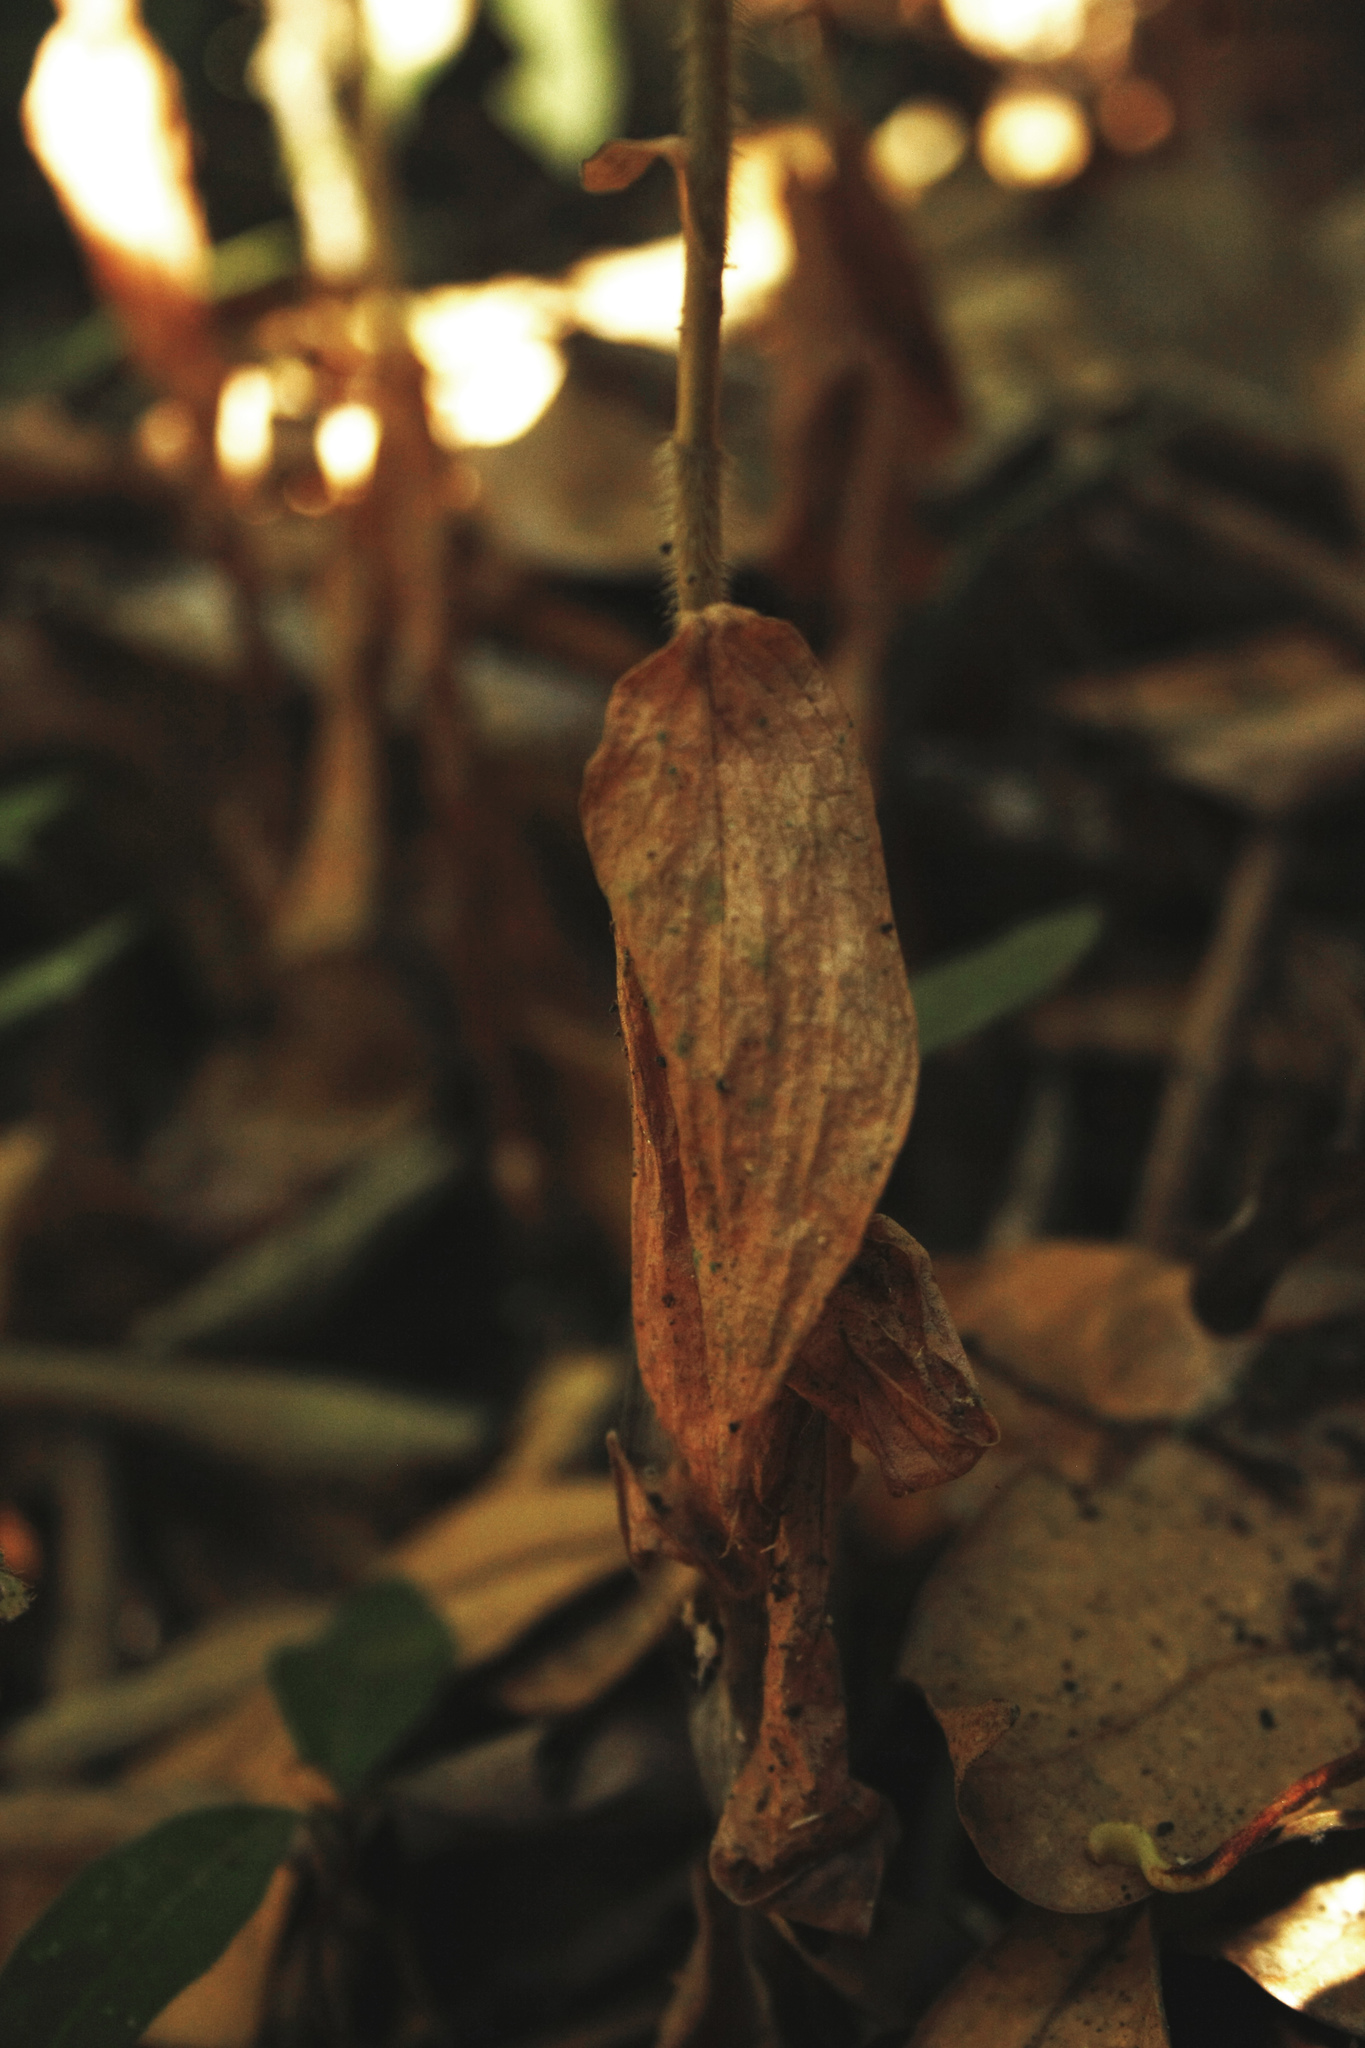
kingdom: Plantae
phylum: Tracheophyta
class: Liliopsida
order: Asparagales
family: Orchidaceae
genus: Zeuxine
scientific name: Zeuxine gracilis
